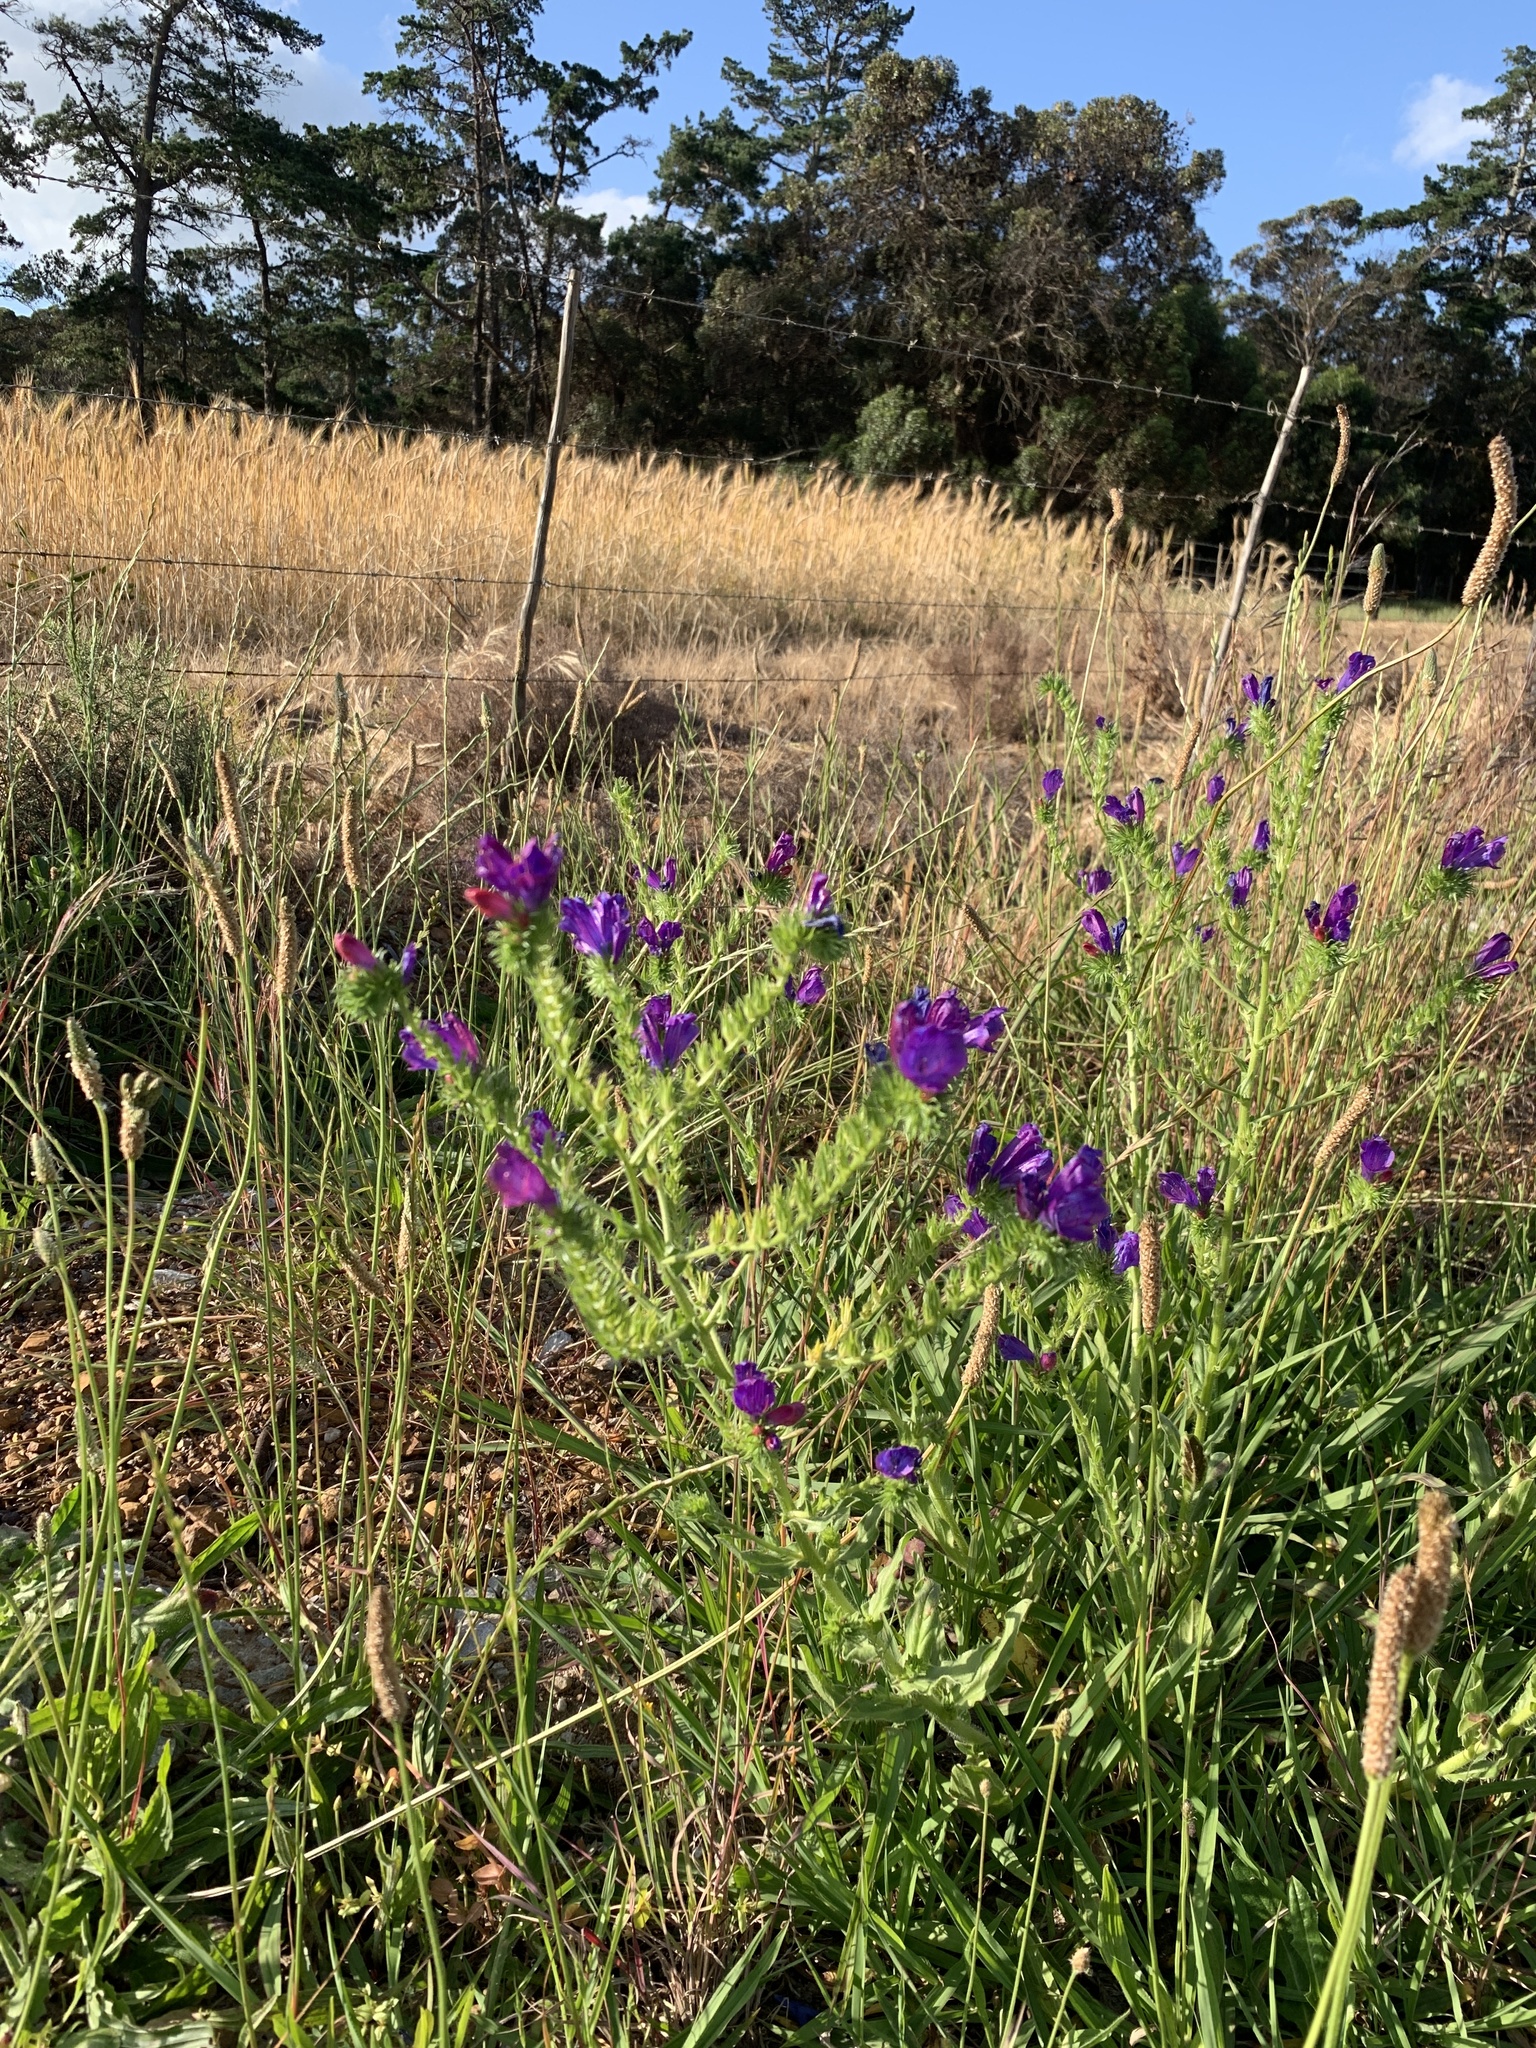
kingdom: Plantae
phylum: Tracheophyta
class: Magnoliopsida
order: Boraginales
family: Boraginaceae
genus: Echium
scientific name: Echium plantagineum
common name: Purple viper's-bugloss
